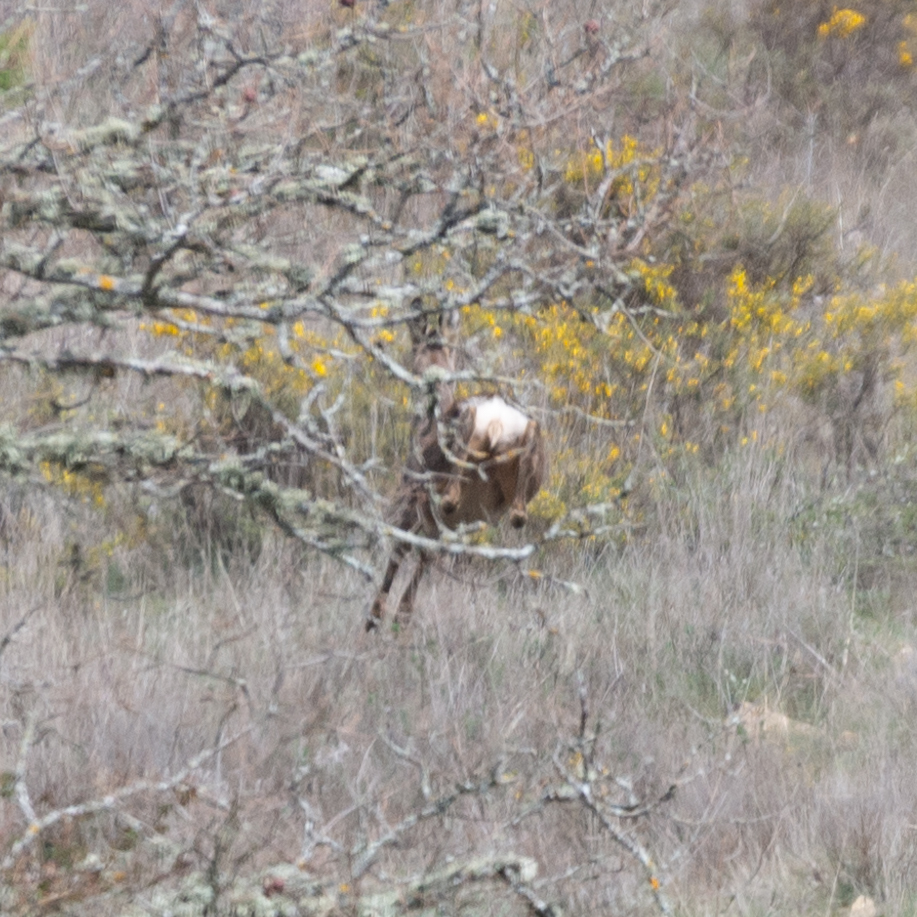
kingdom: Animalia
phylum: Chordata
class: Mammalia
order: Artiodactyla
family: Cervidae
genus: Capreolus
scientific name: Capreolus capreolus
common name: Western roe deer
